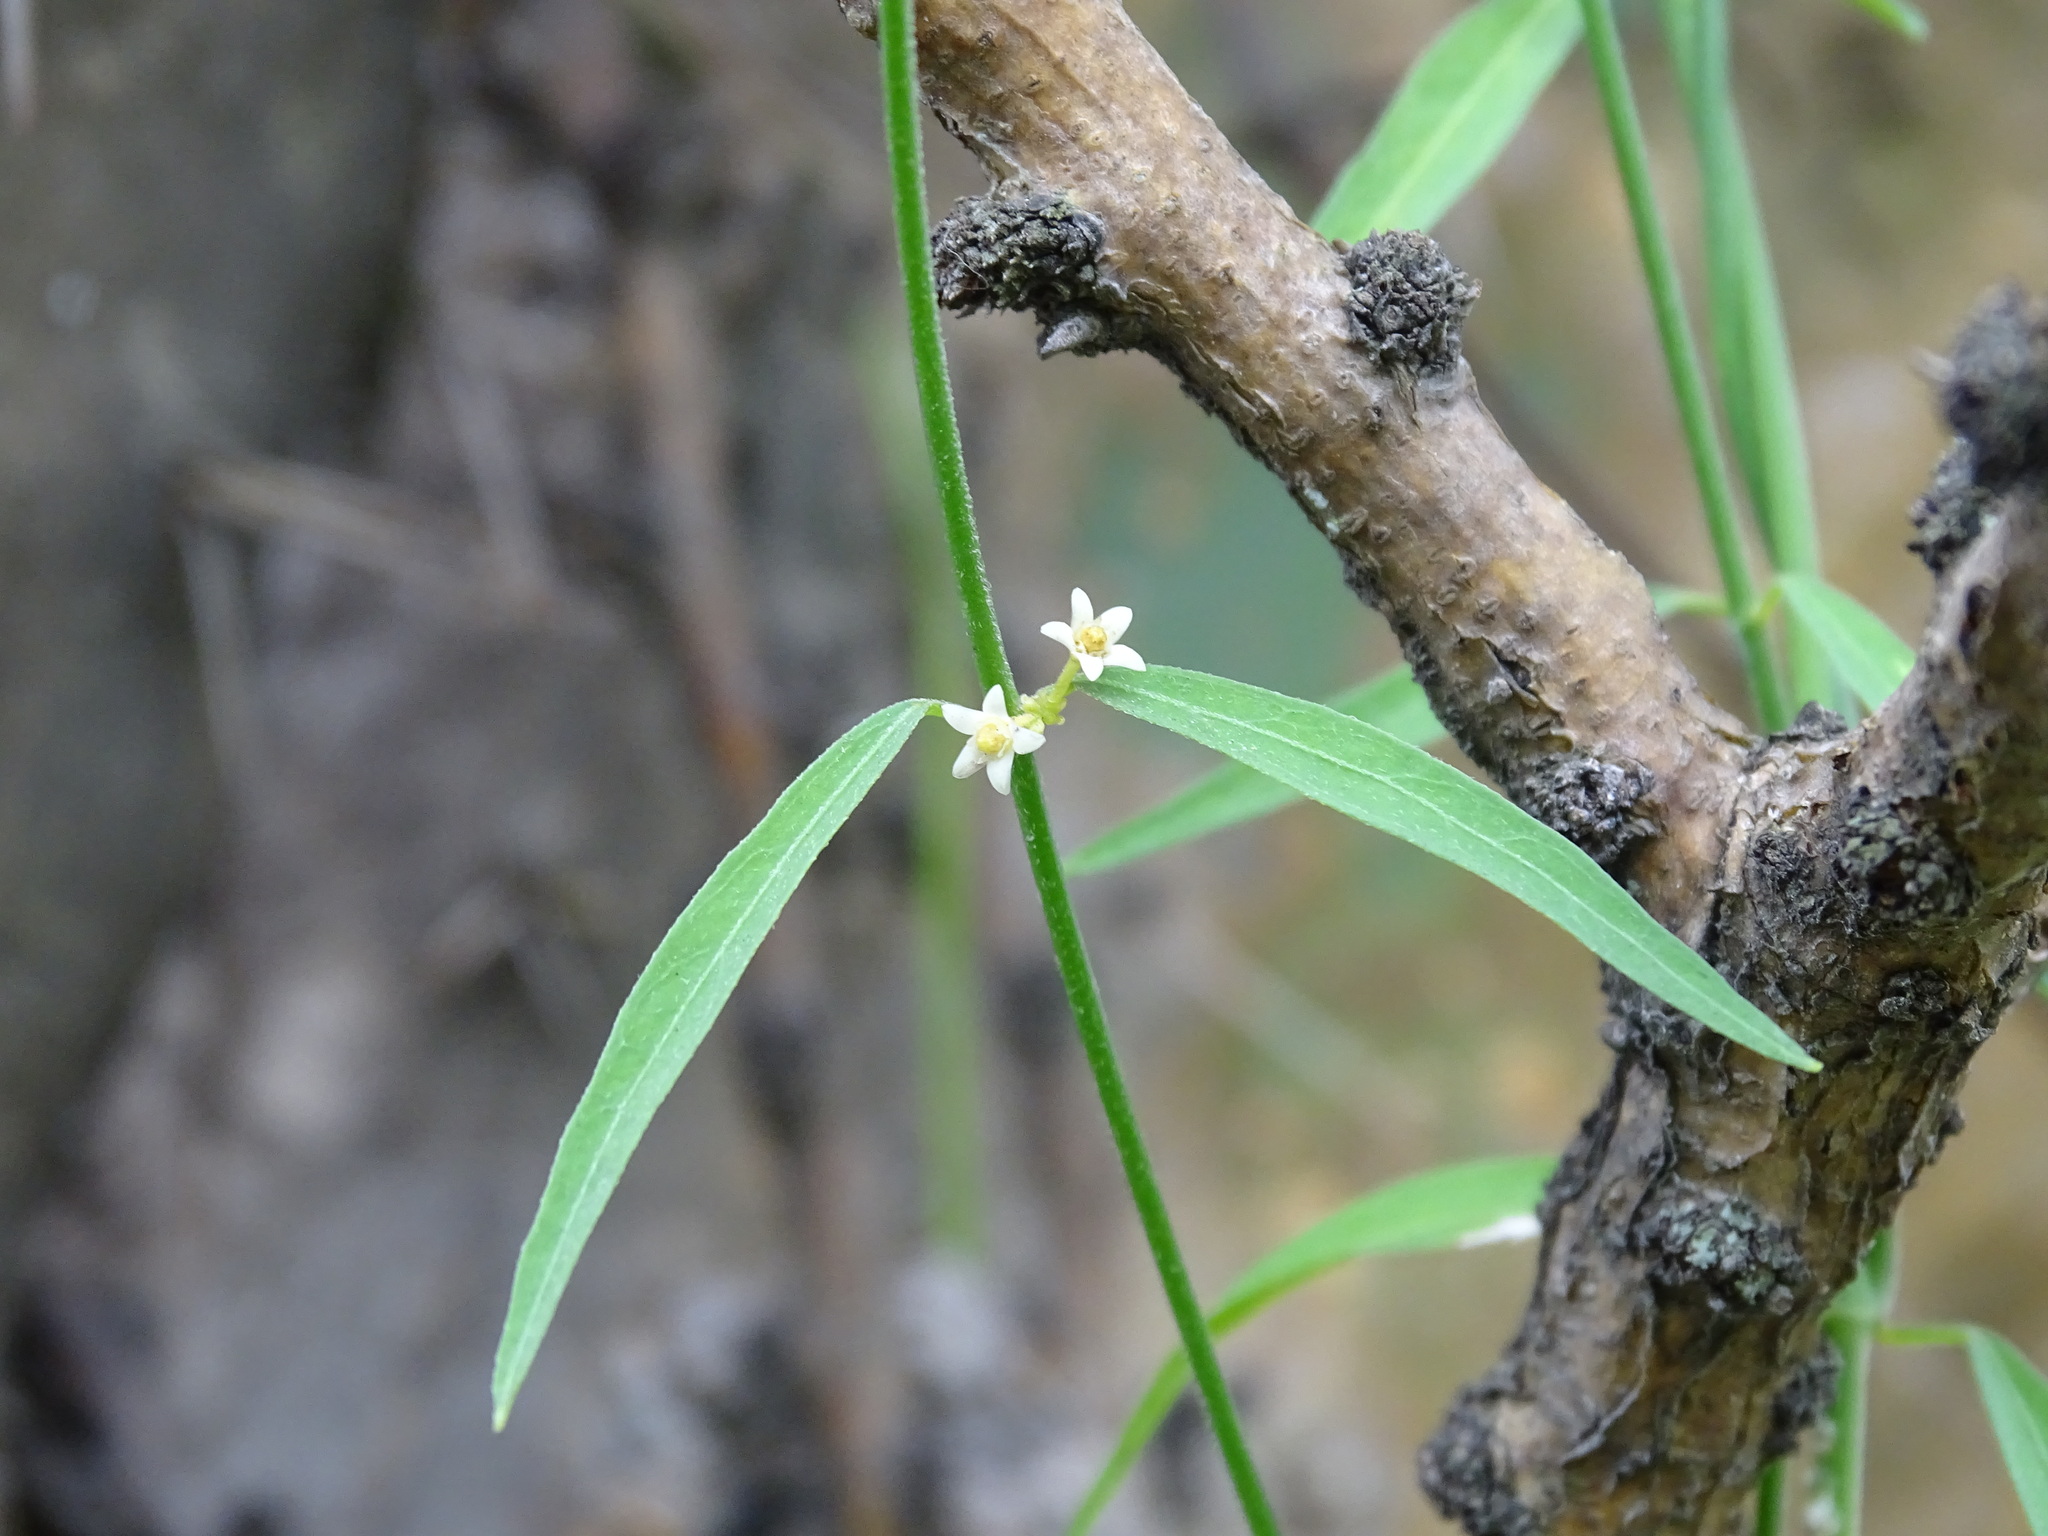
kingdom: Plantae
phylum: Tracheophyta
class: Magnoliopsida
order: Gentianales
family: Apocynaceae
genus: Orthosia
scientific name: Orthosia angustifolia
